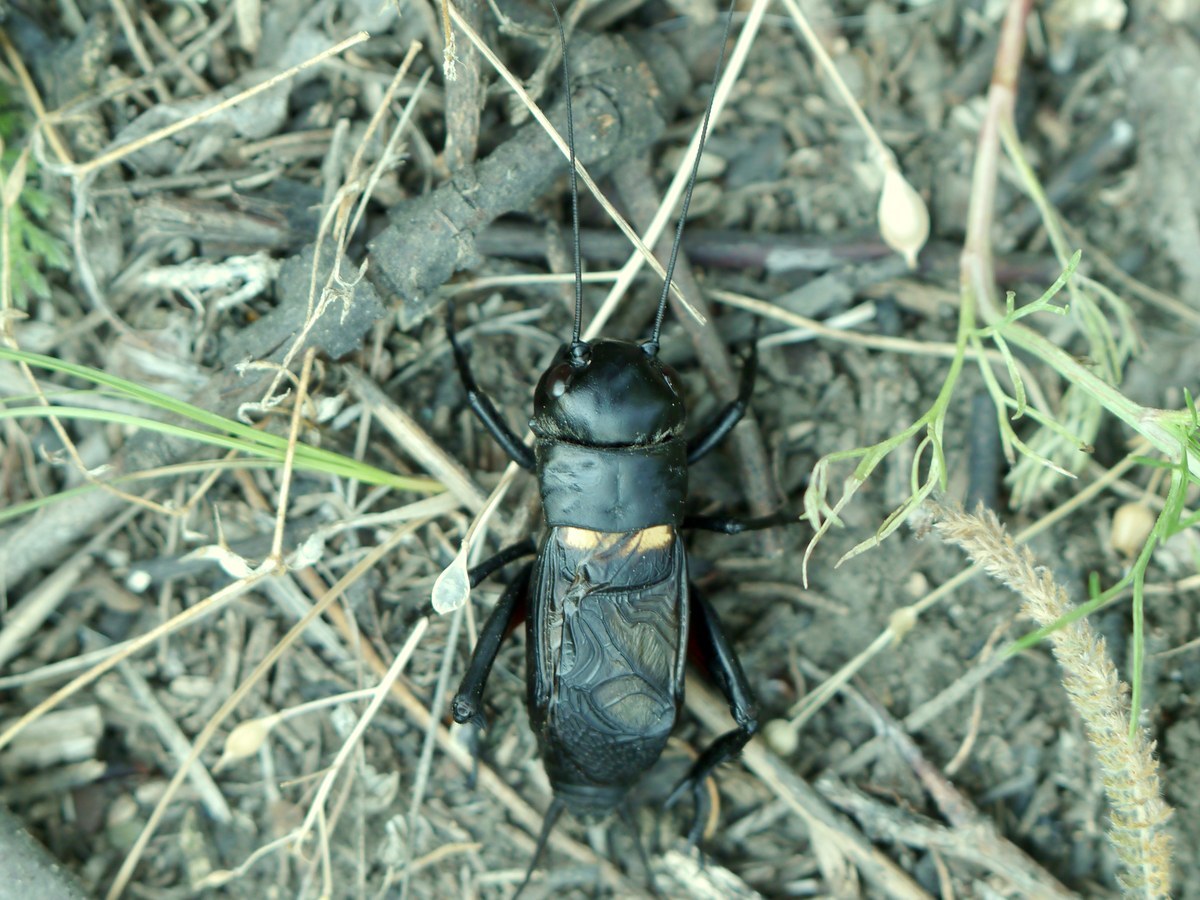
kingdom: Animalia
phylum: Arthropoda
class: Insecta
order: Orthoptera
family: Gryllidae
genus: Gryllus
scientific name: Gryllus campestris
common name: Field cricket
